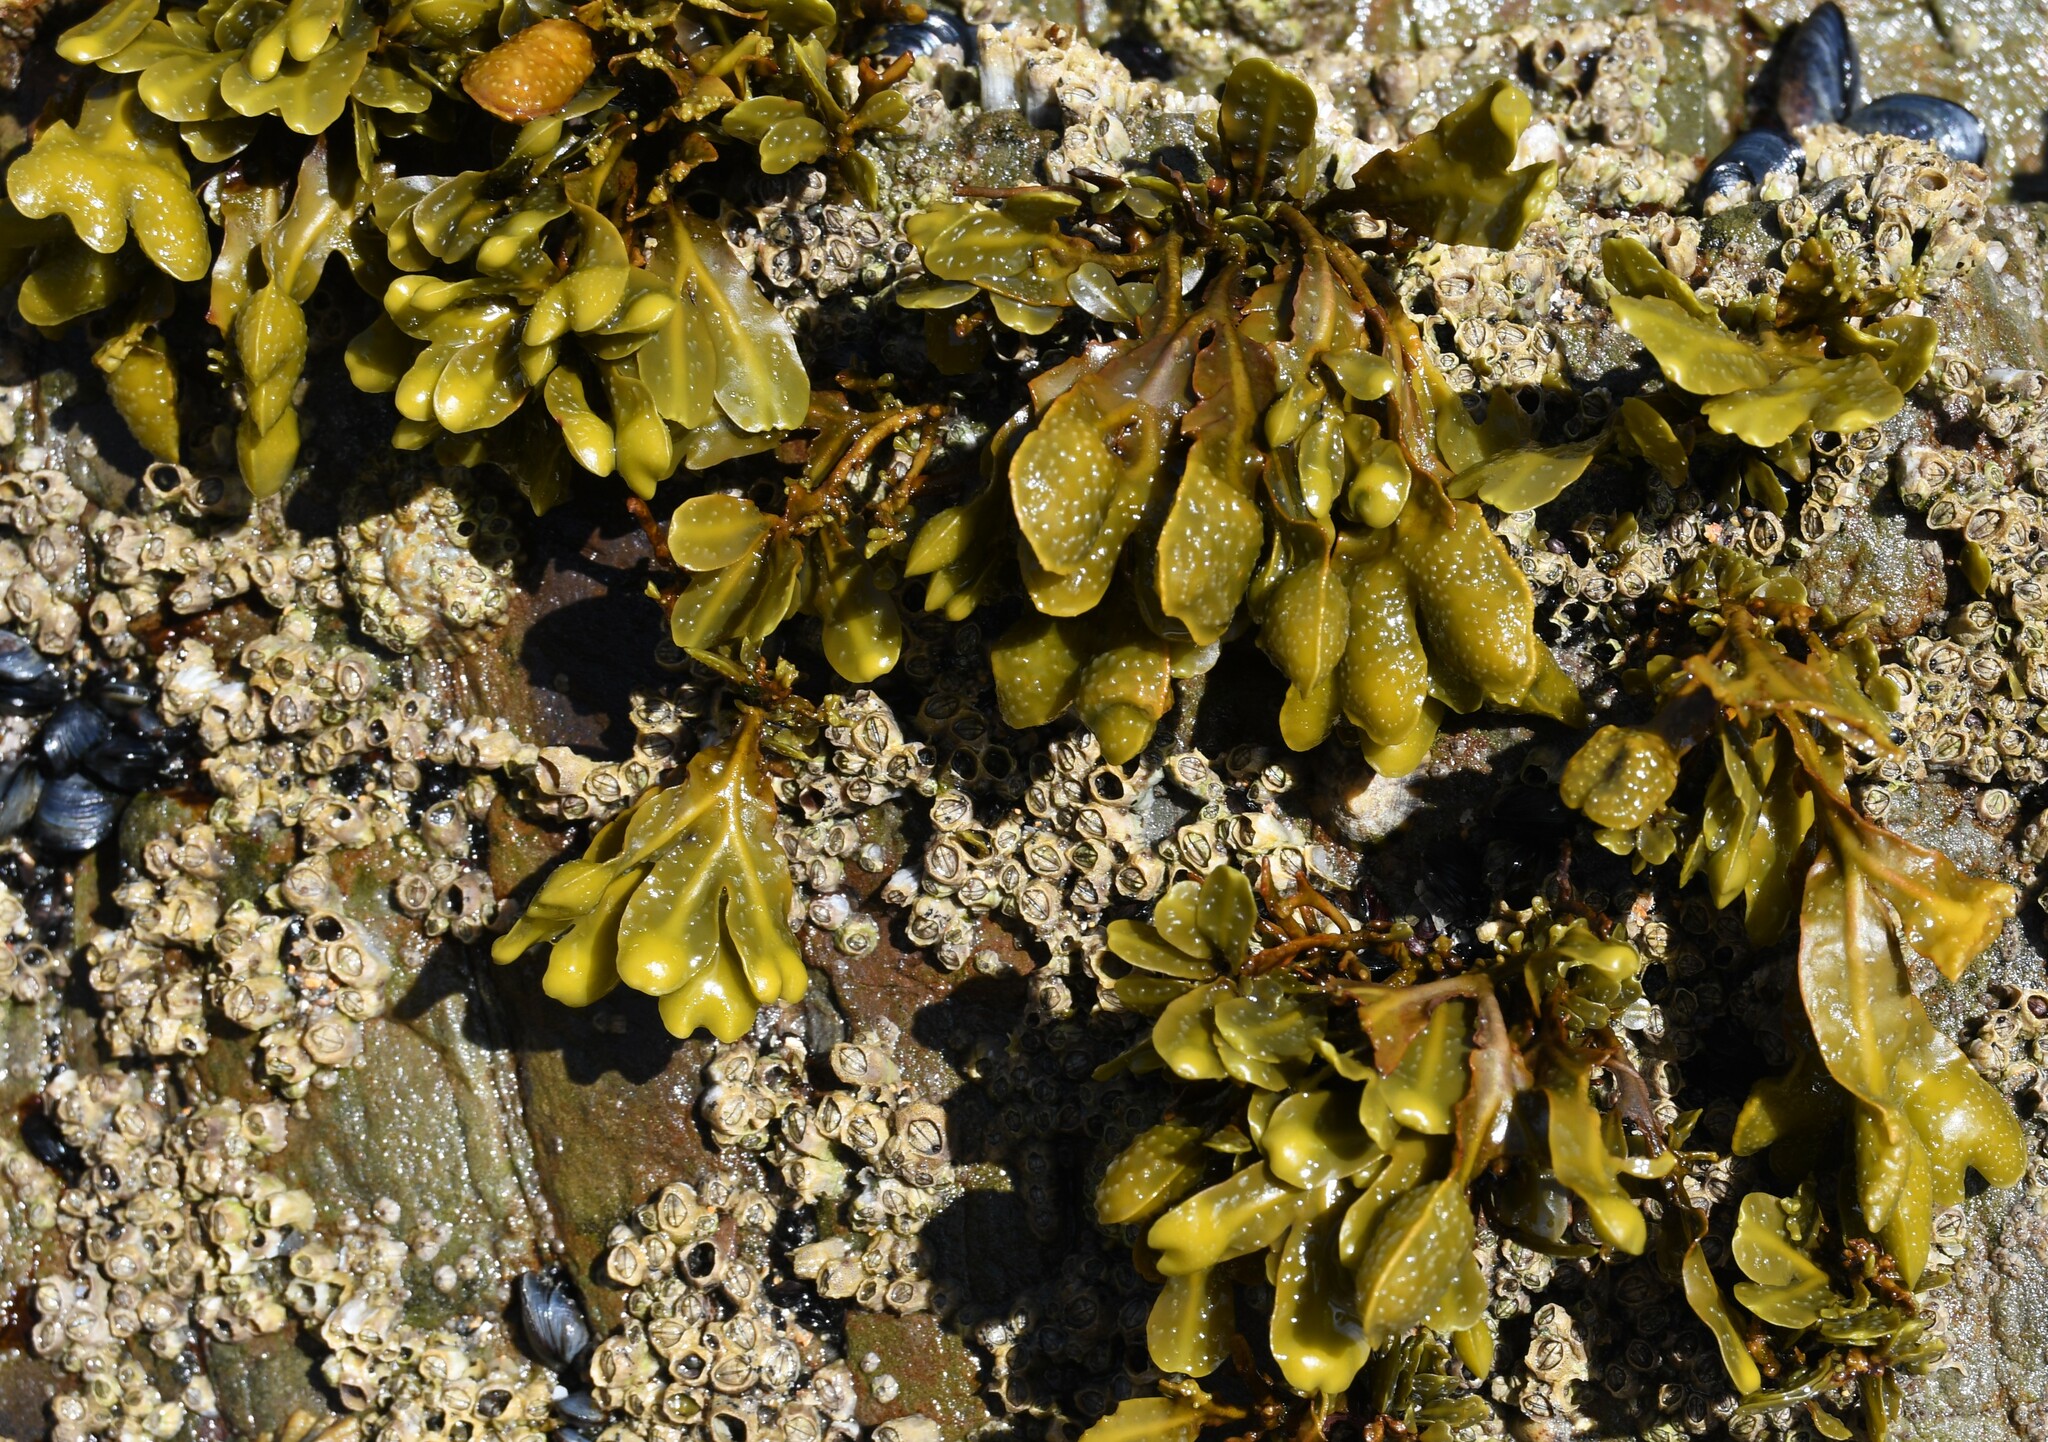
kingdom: Chromista
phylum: Ochrophyta
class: Phaeophyceae
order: Fucales
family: Fucaceae
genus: Fucus
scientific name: Fucus guiryi
